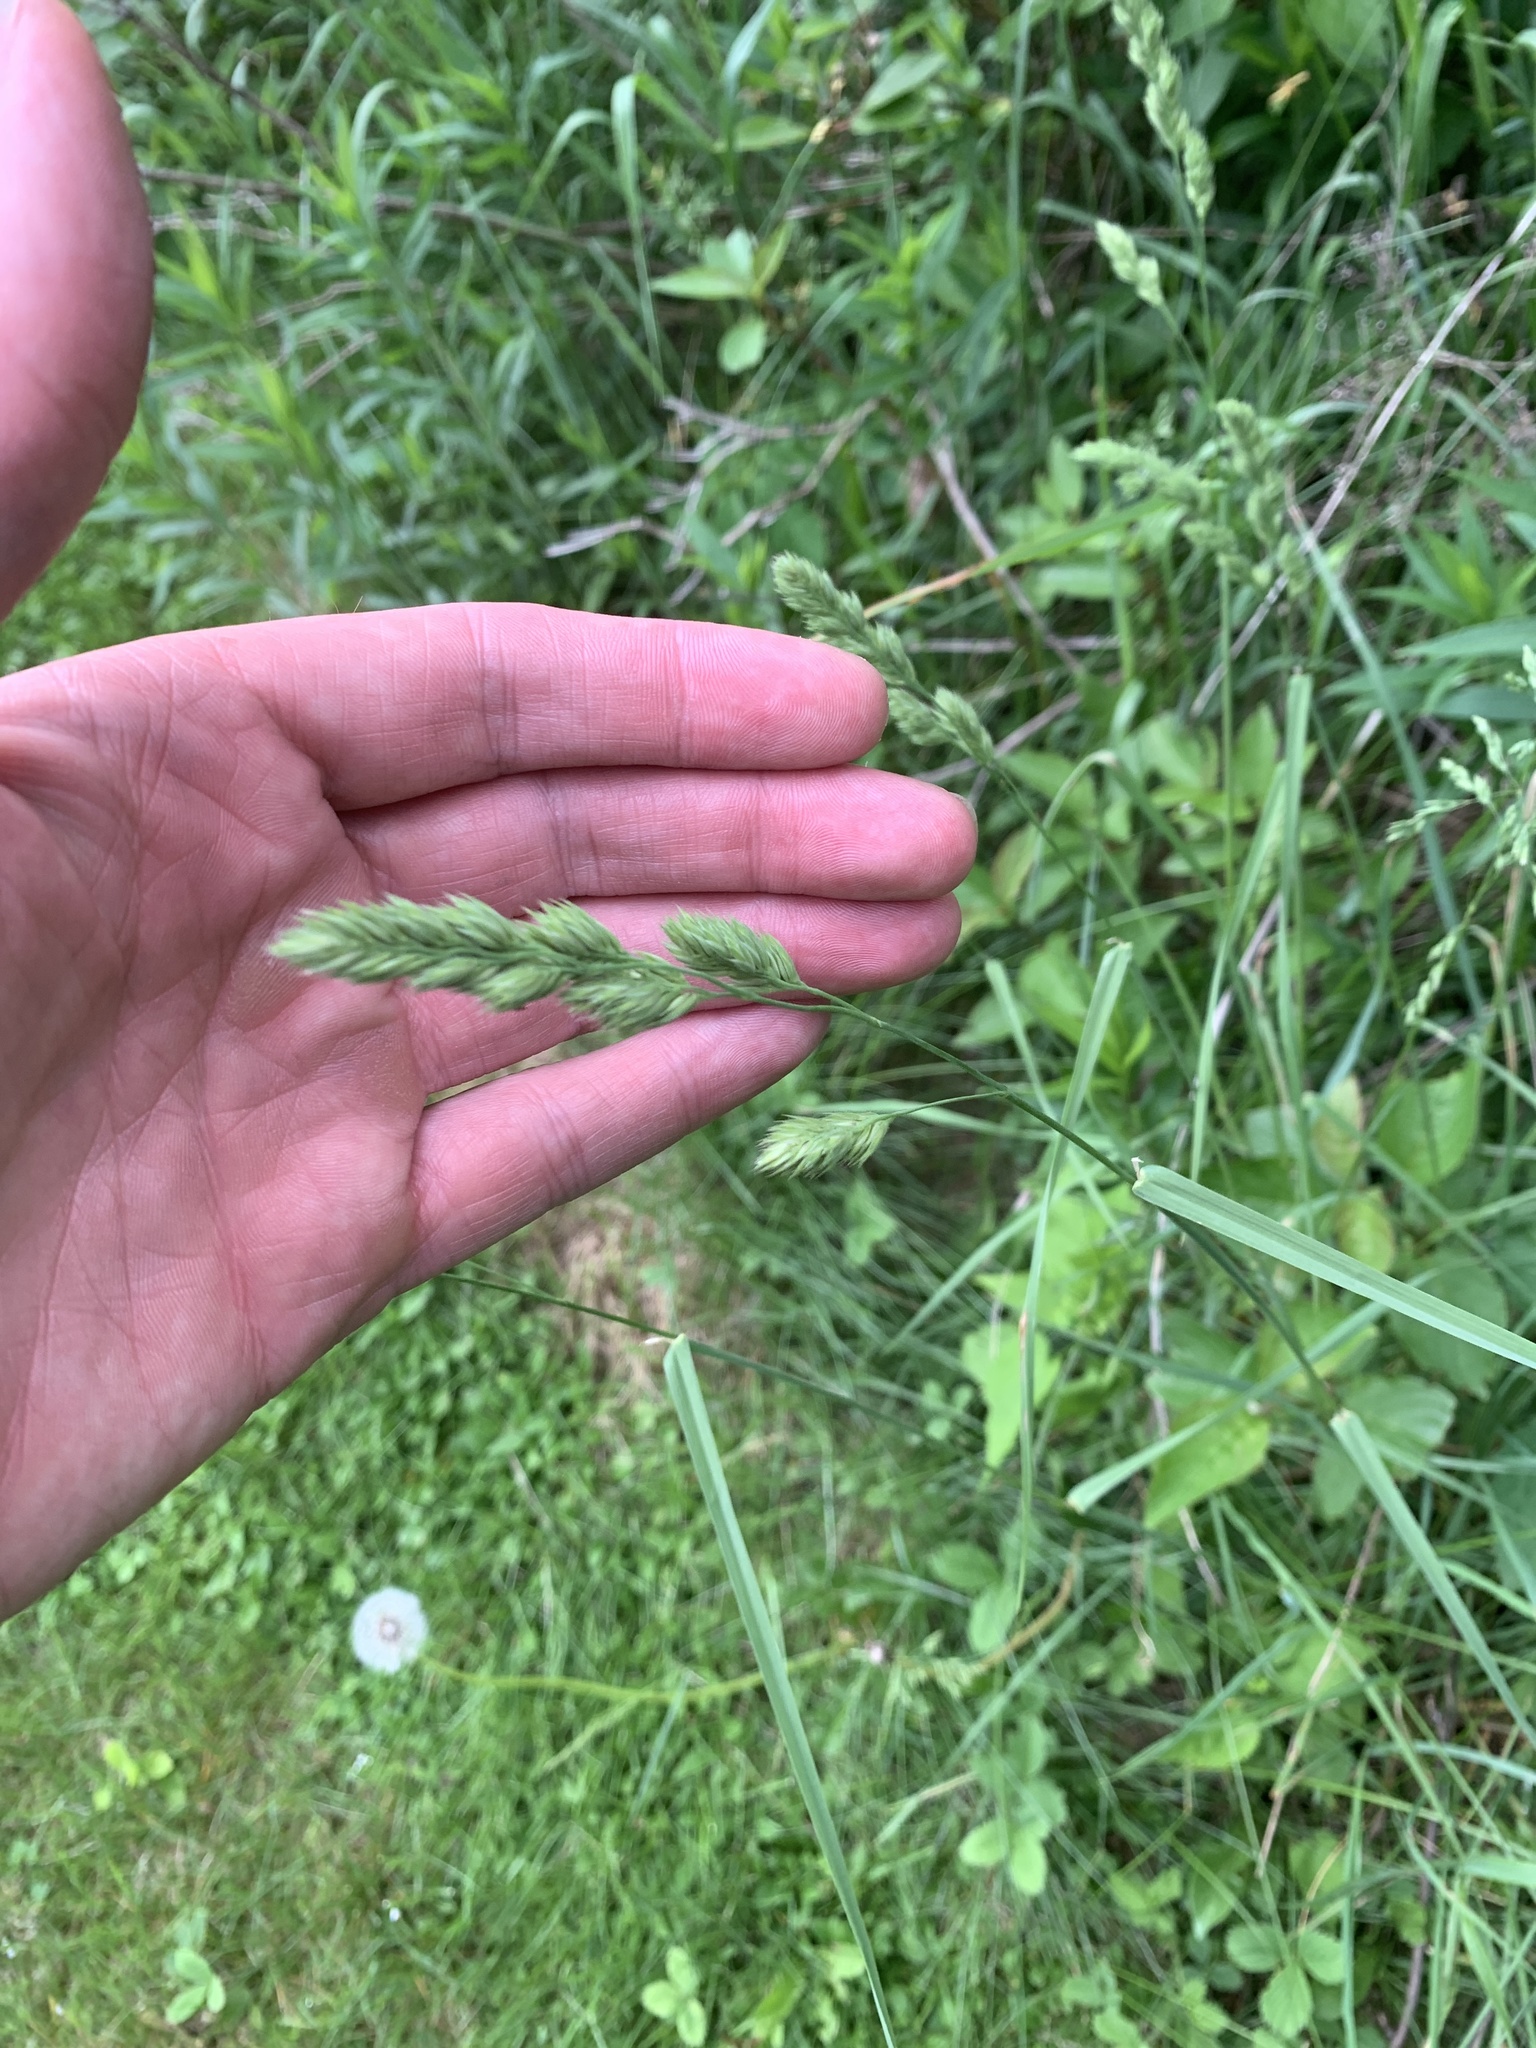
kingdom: Plantae
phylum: Tracheophyta
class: Liliopsida
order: Poales
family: Poaceae
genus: Dactylis
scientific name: Dactylis glomerata
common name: Orchardgrass
